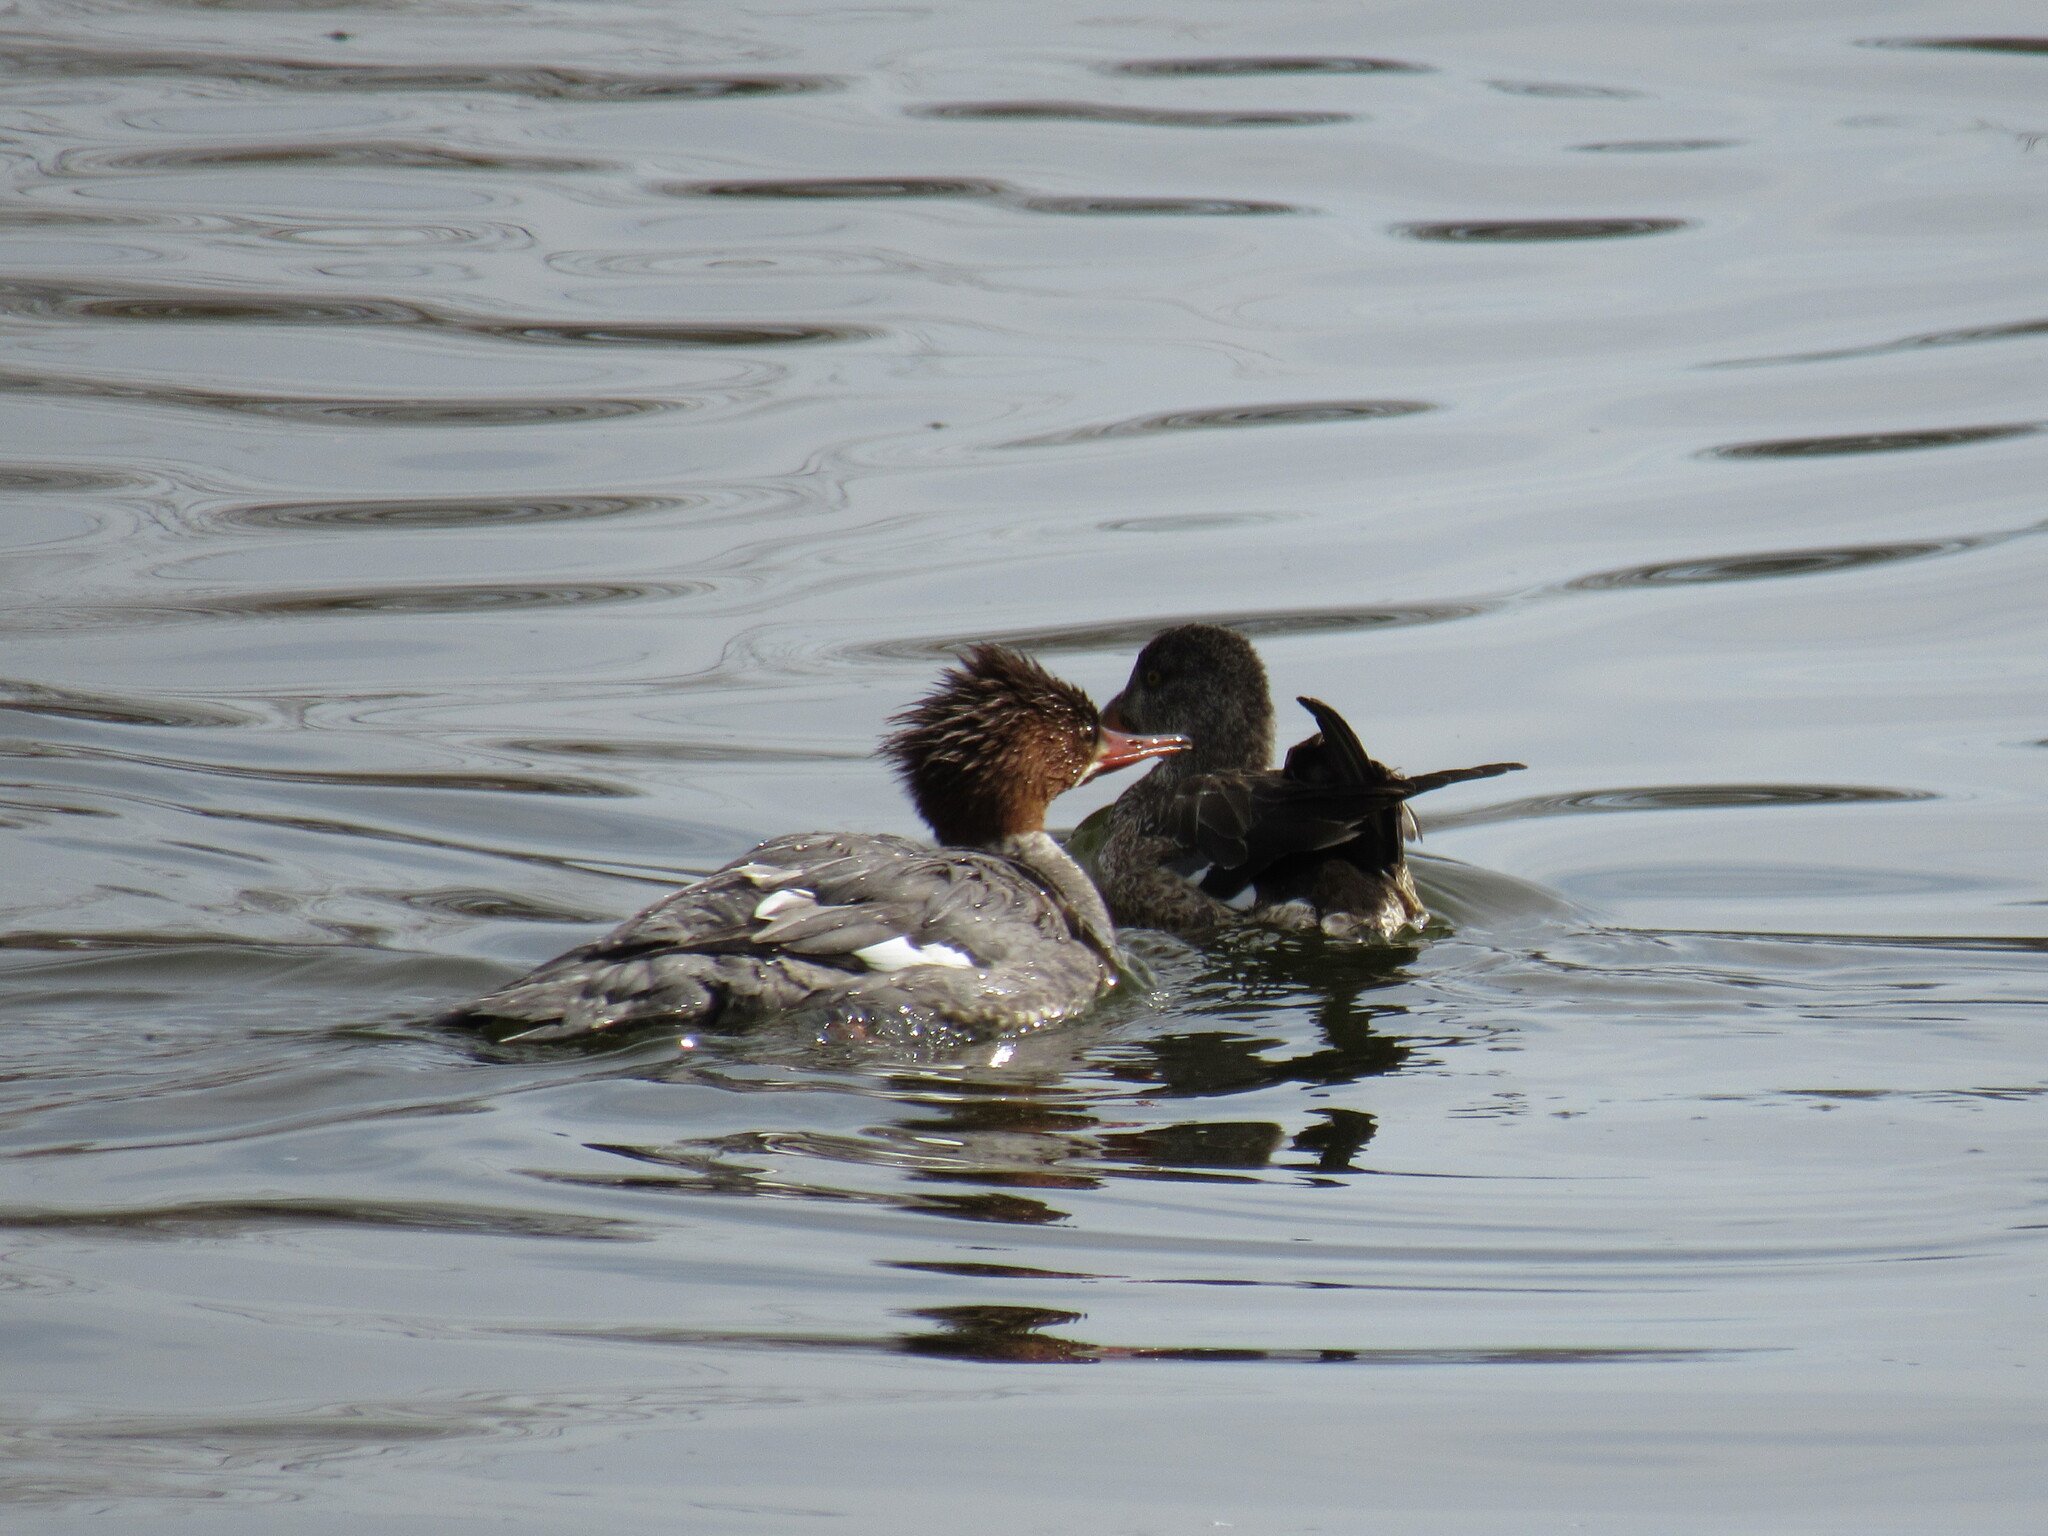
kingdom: Animalia
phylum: Chordata
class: Aves
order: Anseriformes
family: Anatidae
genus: Mergus
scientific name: Mergus merganser
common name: Common merganser
